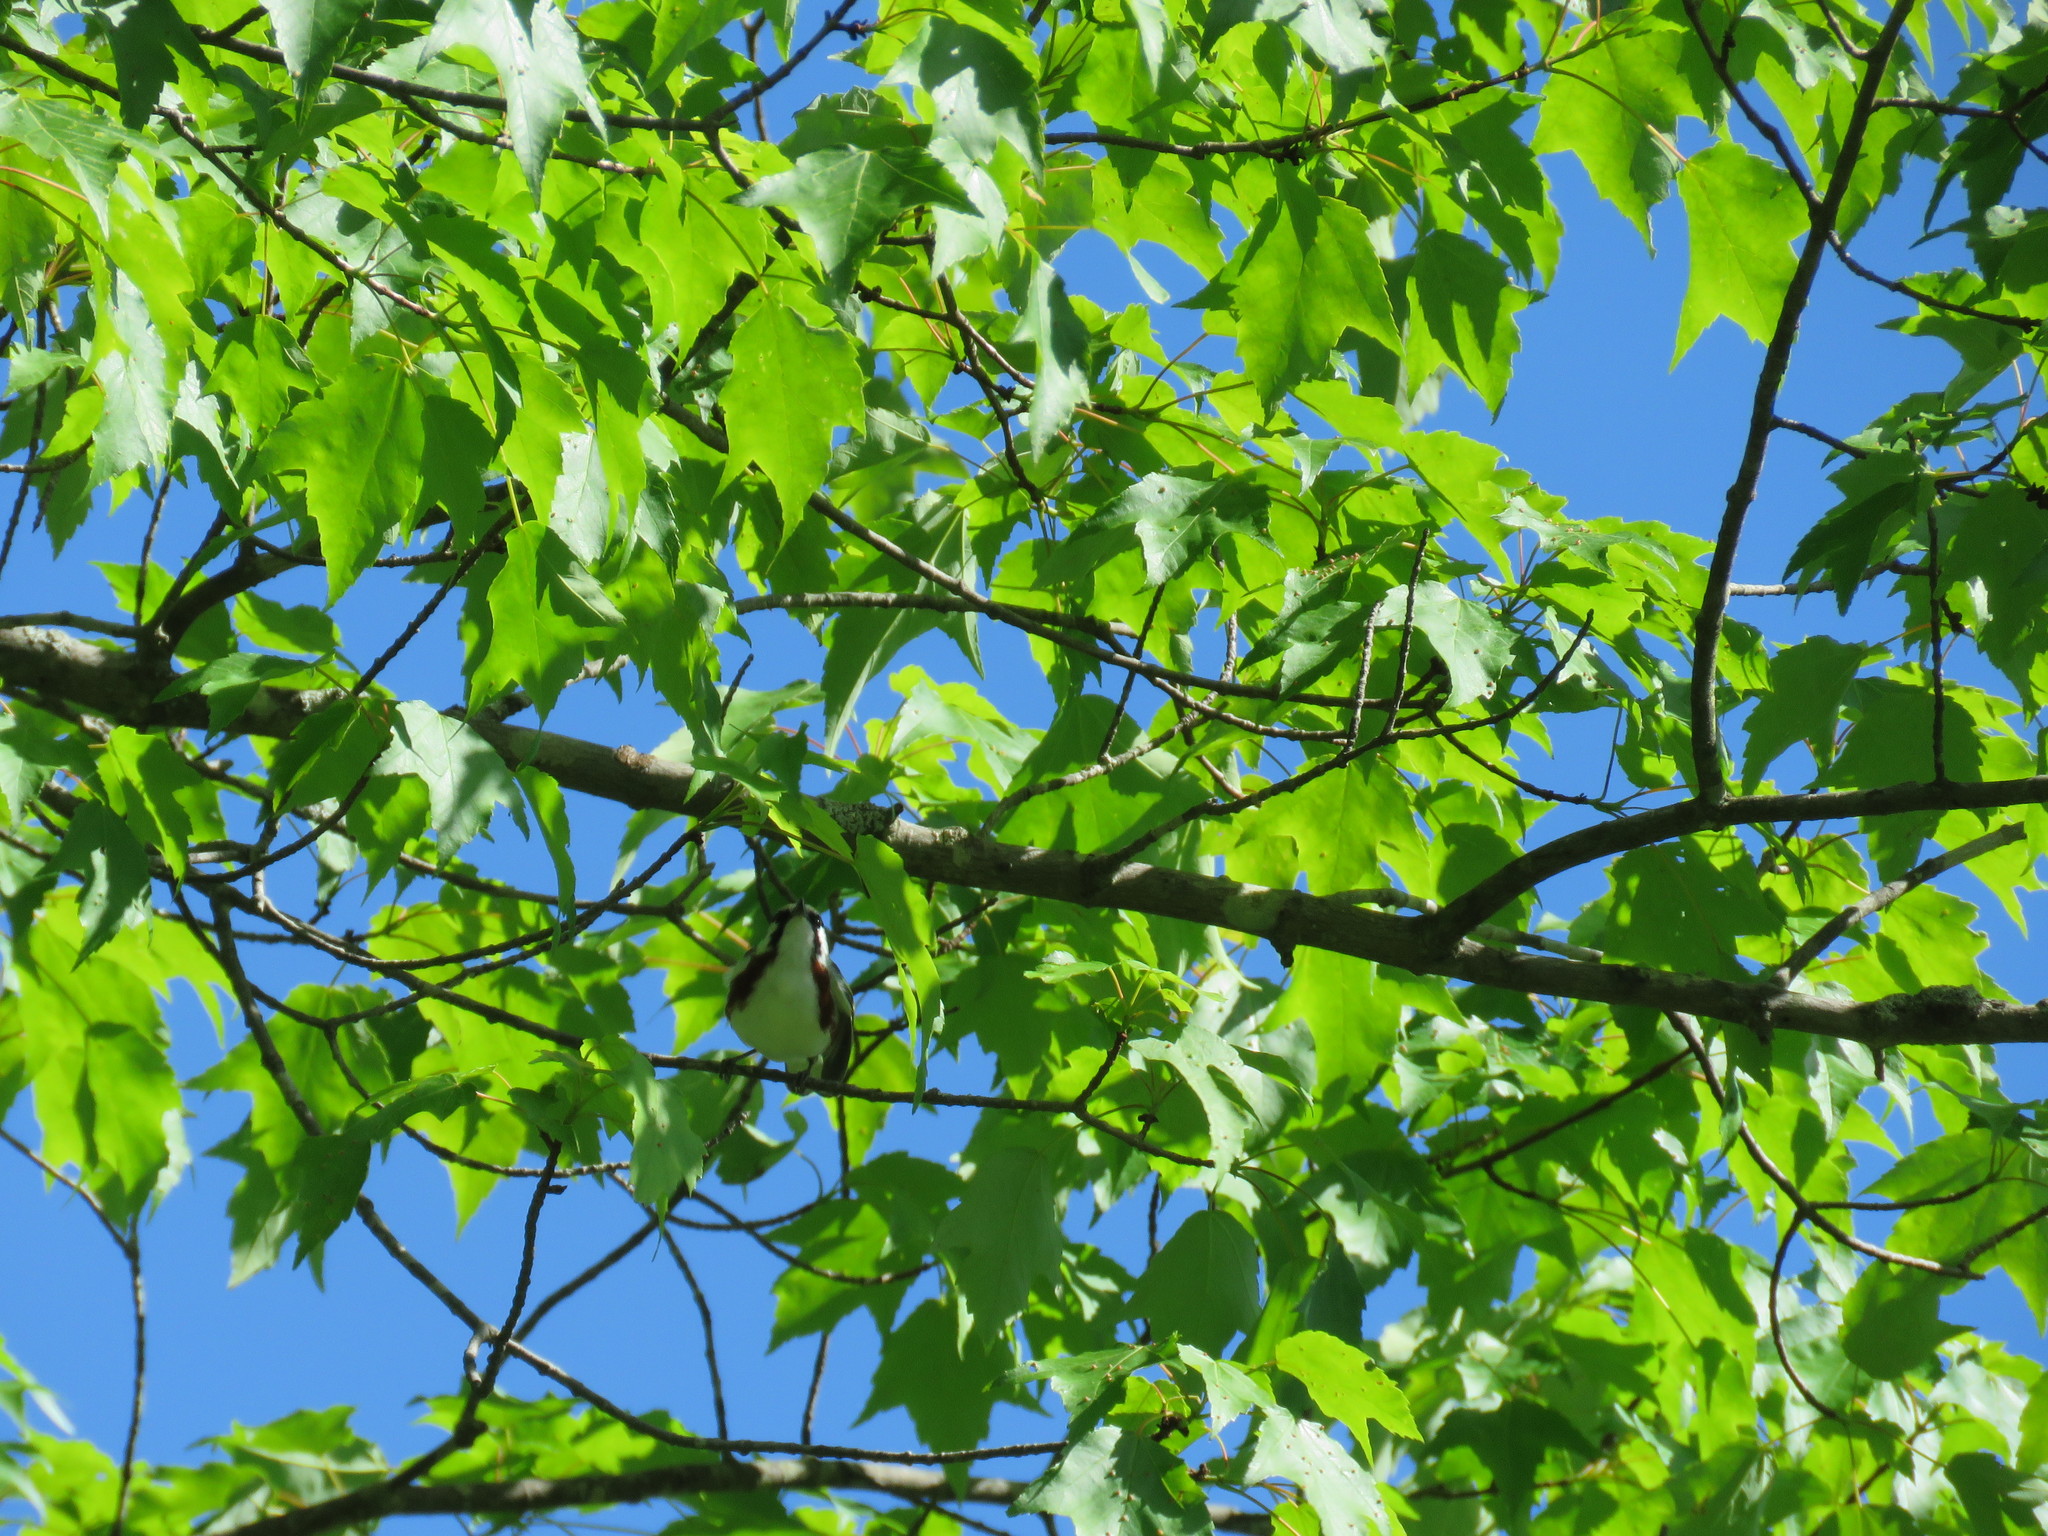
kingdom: Animalia
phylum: Chordata
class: Aves
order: Passeriformes
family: Parulidae
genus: Setophaga
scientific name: Setophaga pensylvanica
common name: Chestnut-sided warbler
